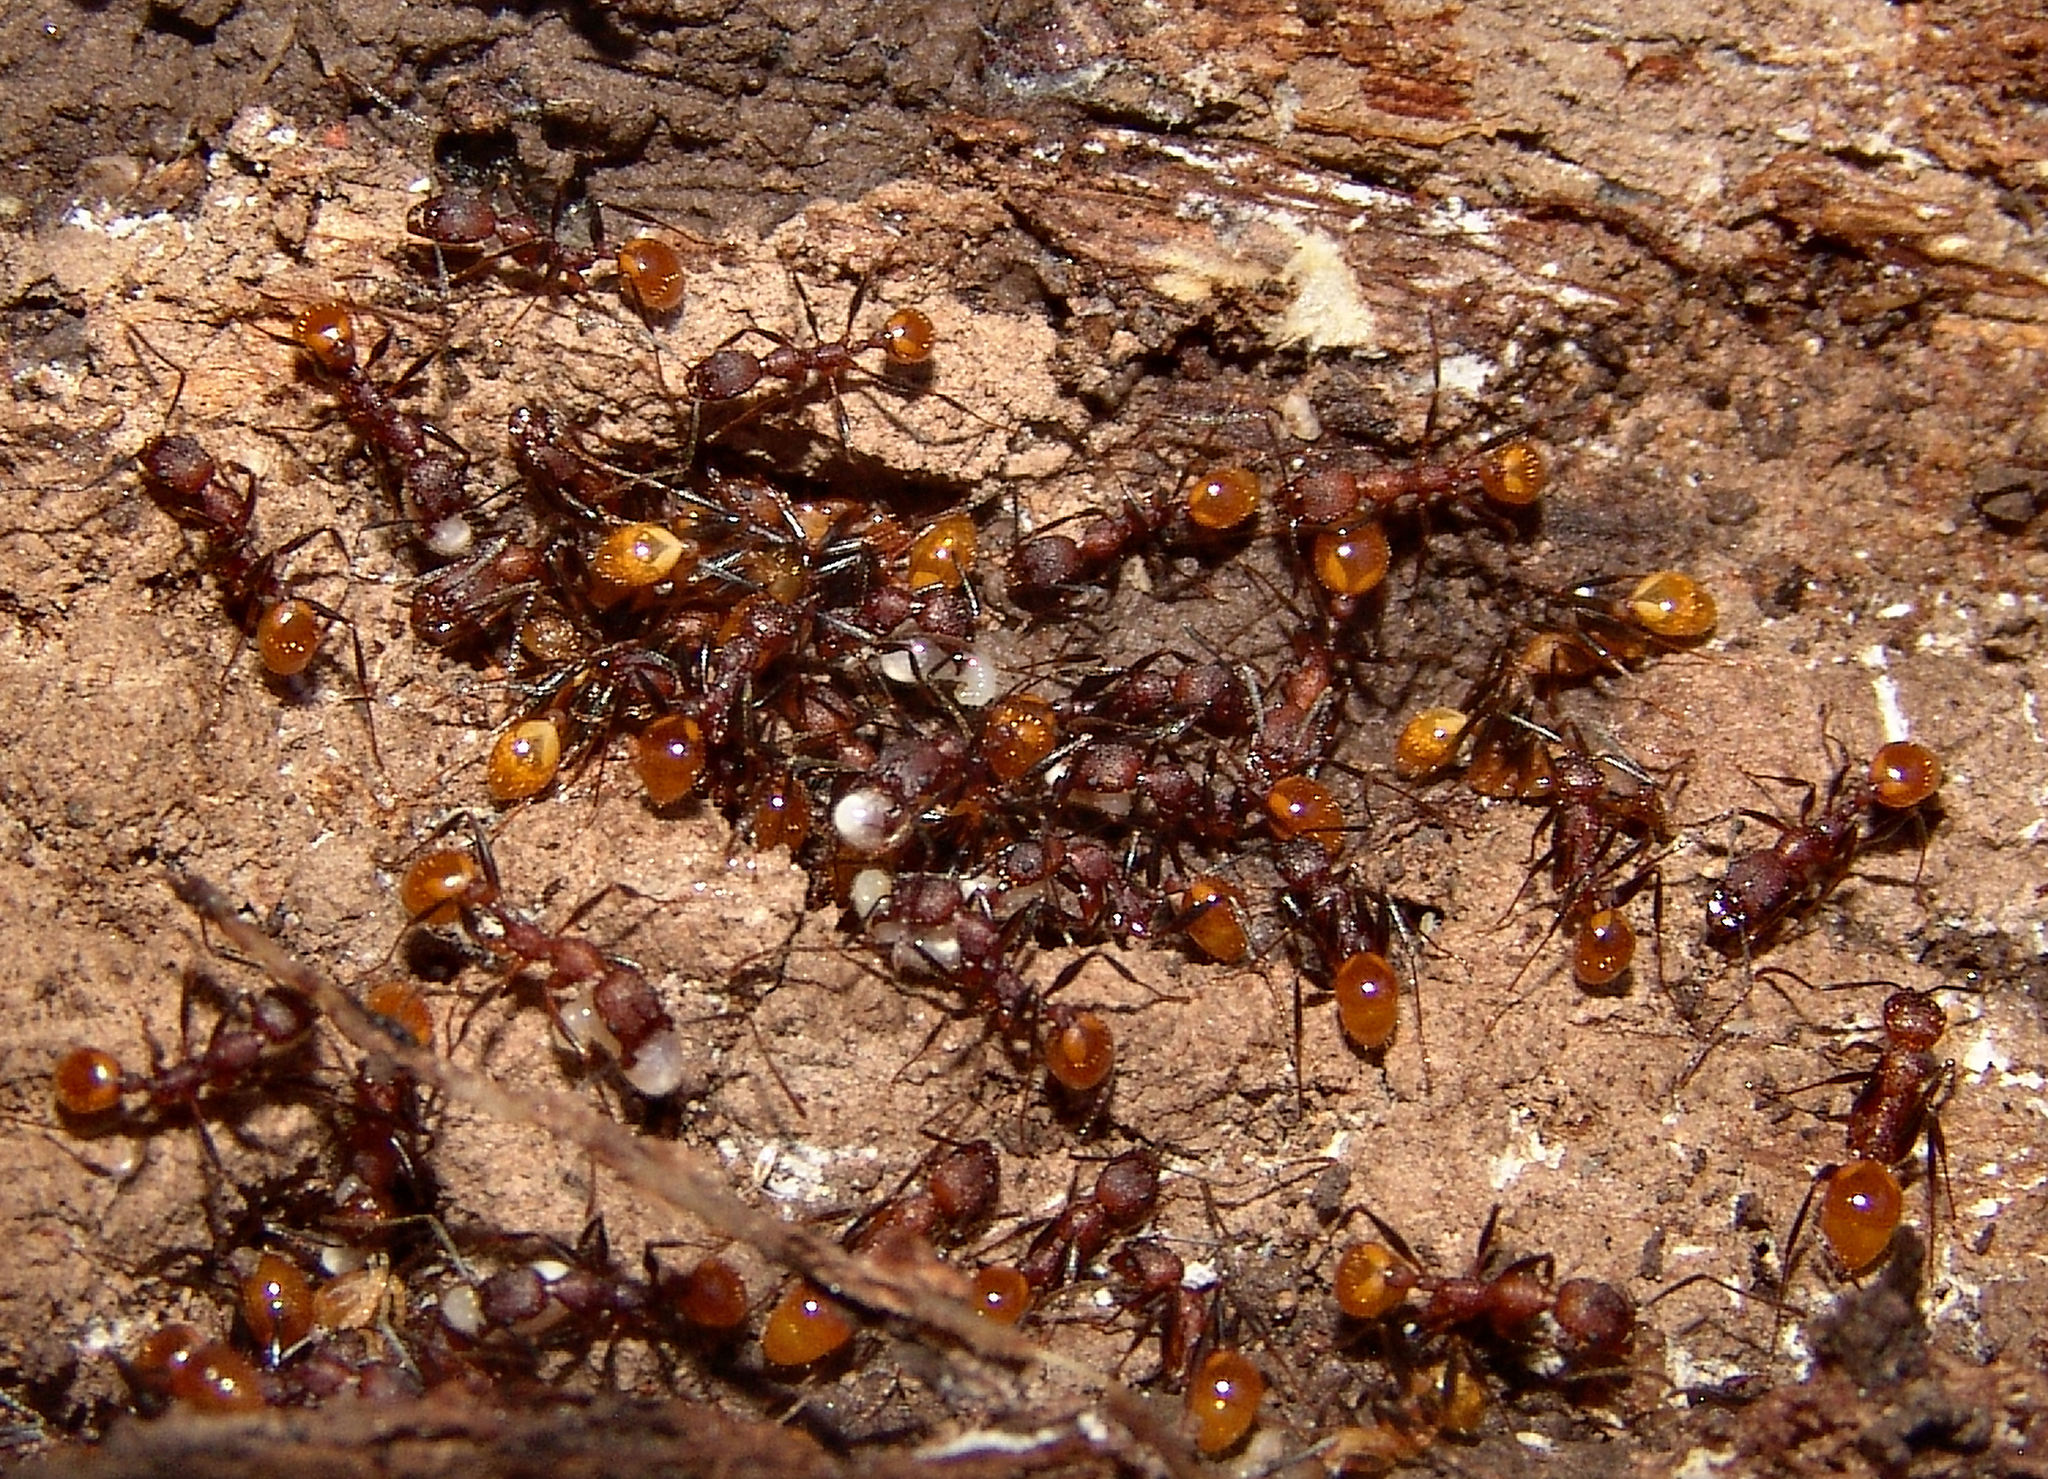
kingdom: Animalia
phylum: Arthropoda
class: Insecta
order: Hymenoptera
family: Formicidae
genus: Aphaenogaster
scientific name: Aphaenogaster lamellidens
